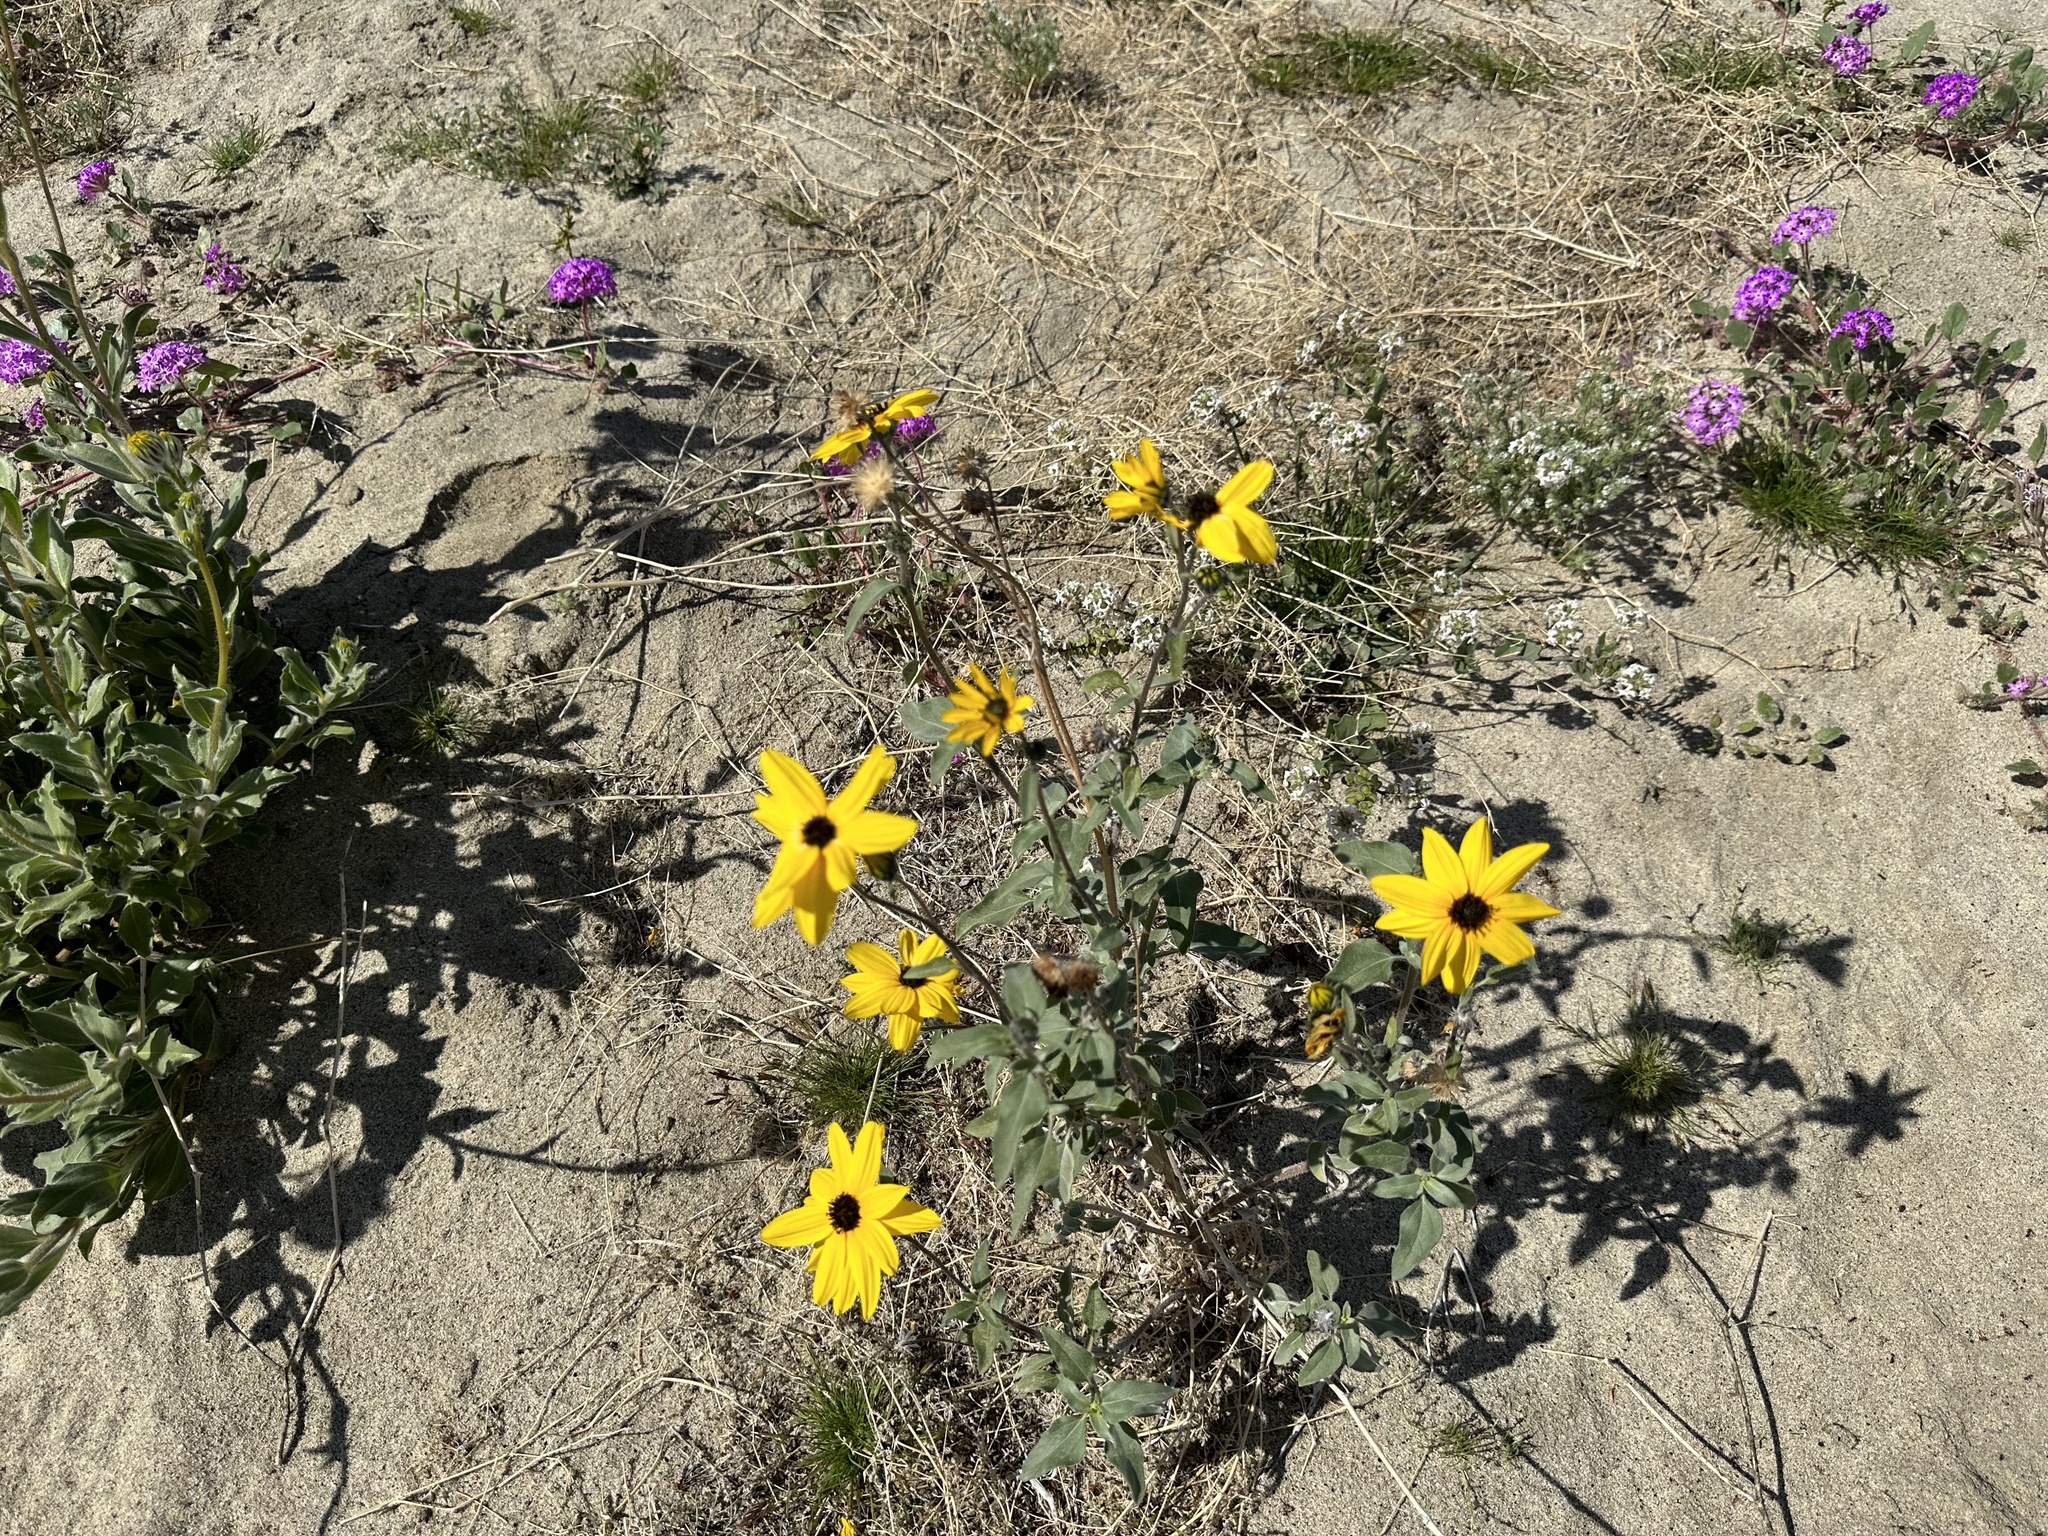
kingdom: Plantae
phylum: Tracheophyta
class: Magnoliopsida
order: Asterales
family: Asteraceae
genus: Helianthus
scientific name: Helianthus petiolaris
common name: Lesser sunflower
